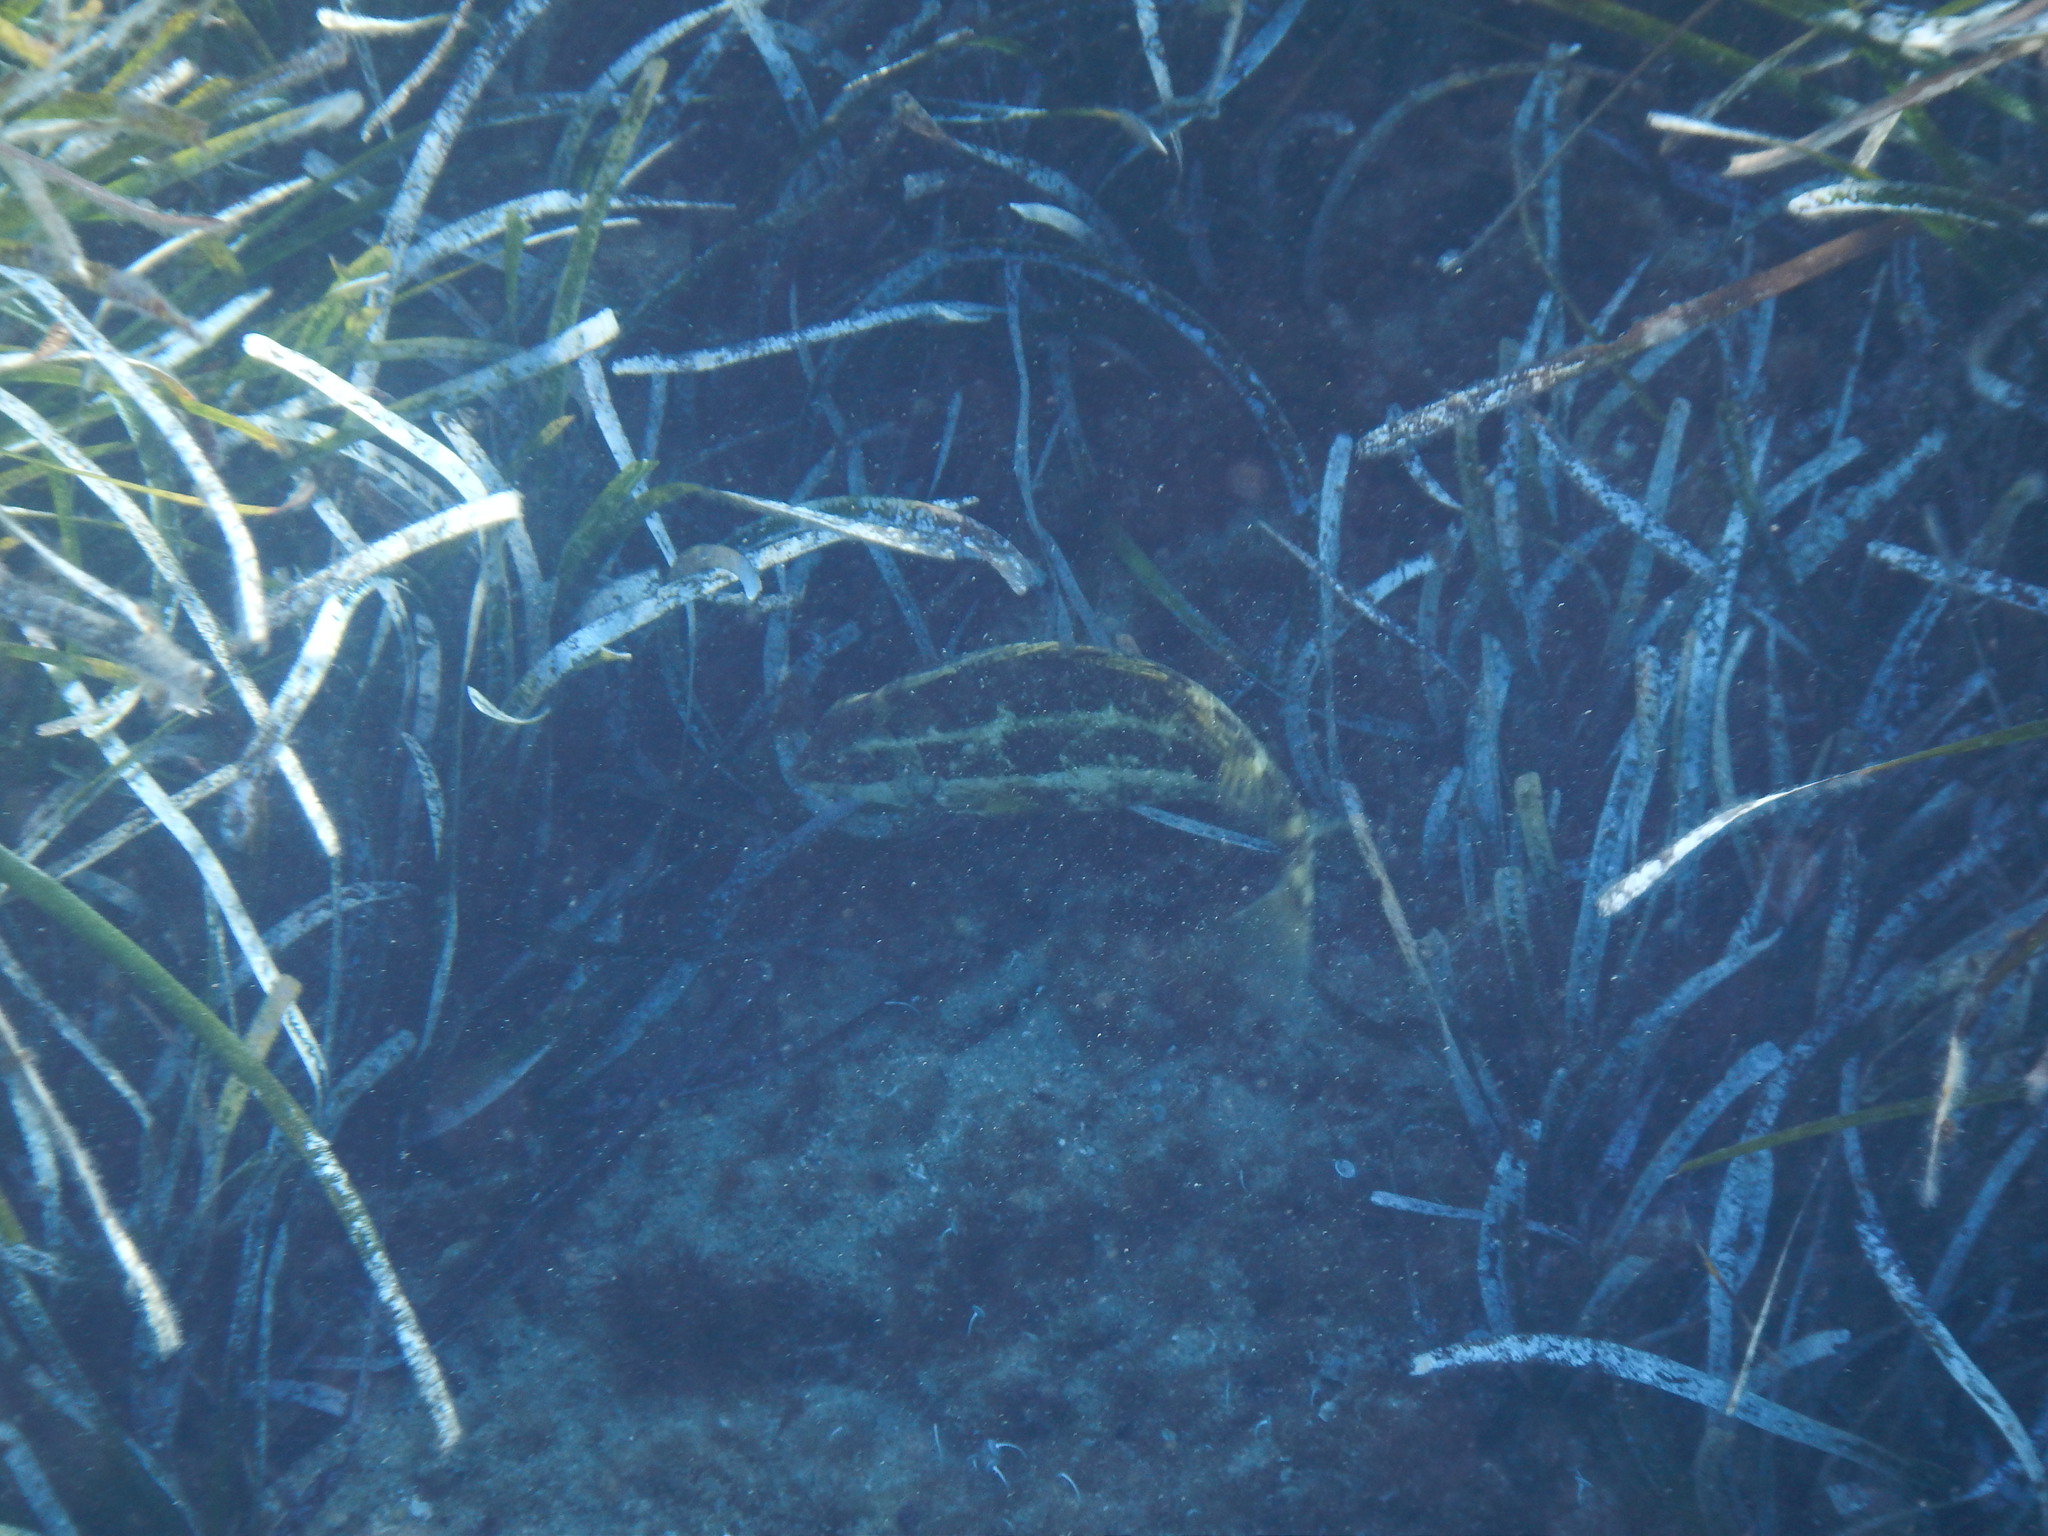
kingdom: Animalia
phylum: Chordata
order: Perciformes
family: Siganidae
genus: Siganus
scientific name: Siganus luridus
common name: Dusky spinefoot
